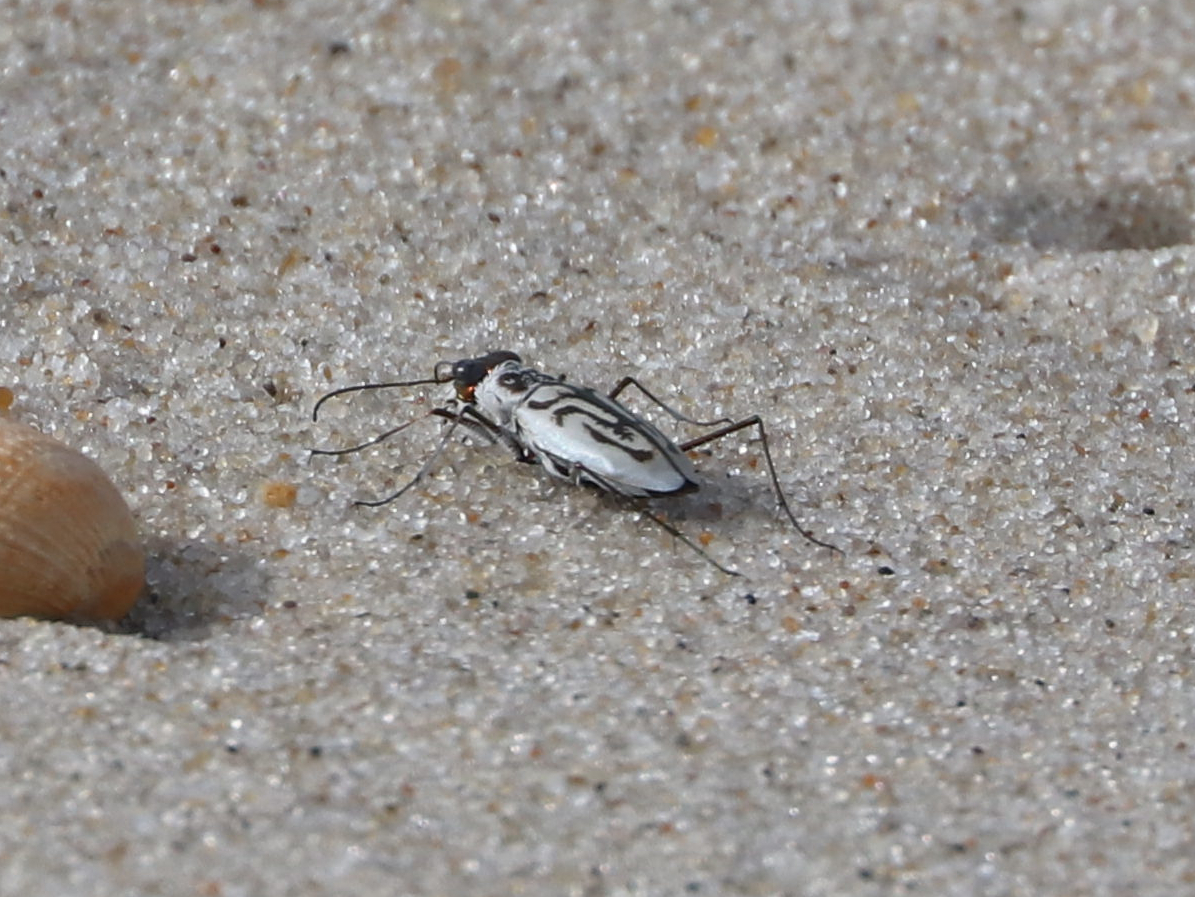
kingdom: Animalia
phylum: Arthropoda
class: Insecta
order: Coleoptera
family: Carabidae
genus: Habroscelimorpha
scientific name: Habroscelimorpha dorsalis
